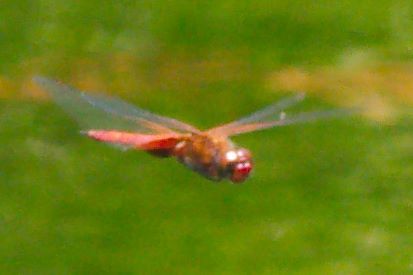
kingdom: Animalia
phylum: Arthropoda
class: Insecta
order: Odonata
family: Libellulidae
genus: Tramea
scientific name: Tramea onusta
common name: Red saddlebags
